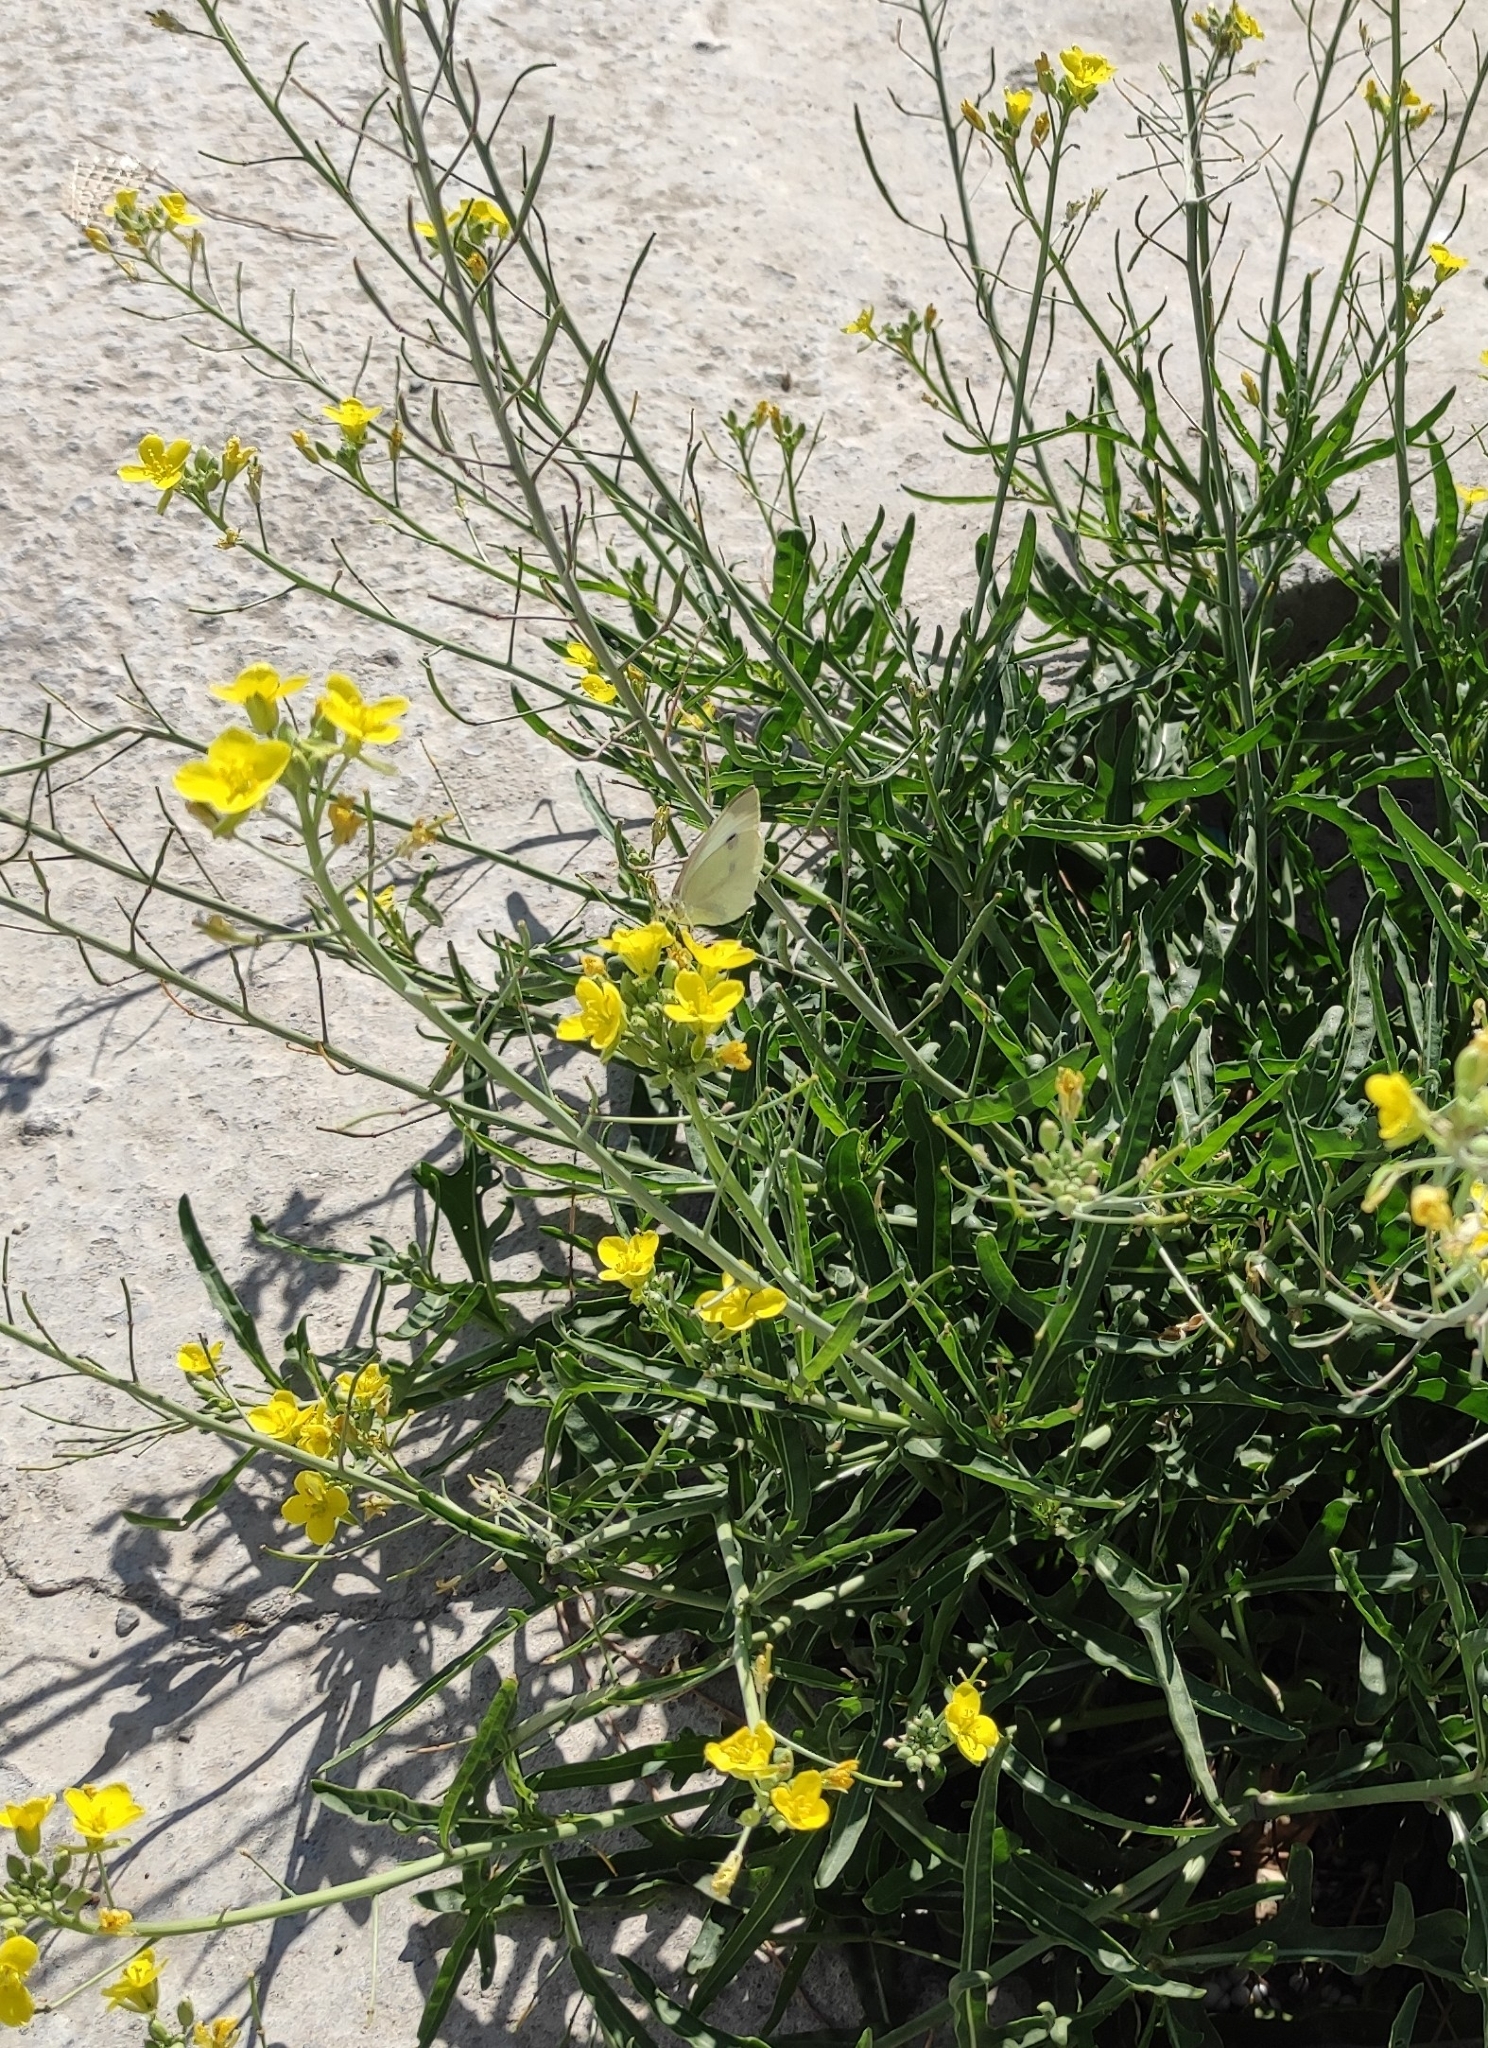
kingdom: Plantae
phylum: Tracheophyta
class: Magnoliopsida
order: Brassicales
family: Brassicaceae
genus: Diplotaxis
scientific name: Diplotaxis tenuifolia
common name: Perennial wall-rocket
